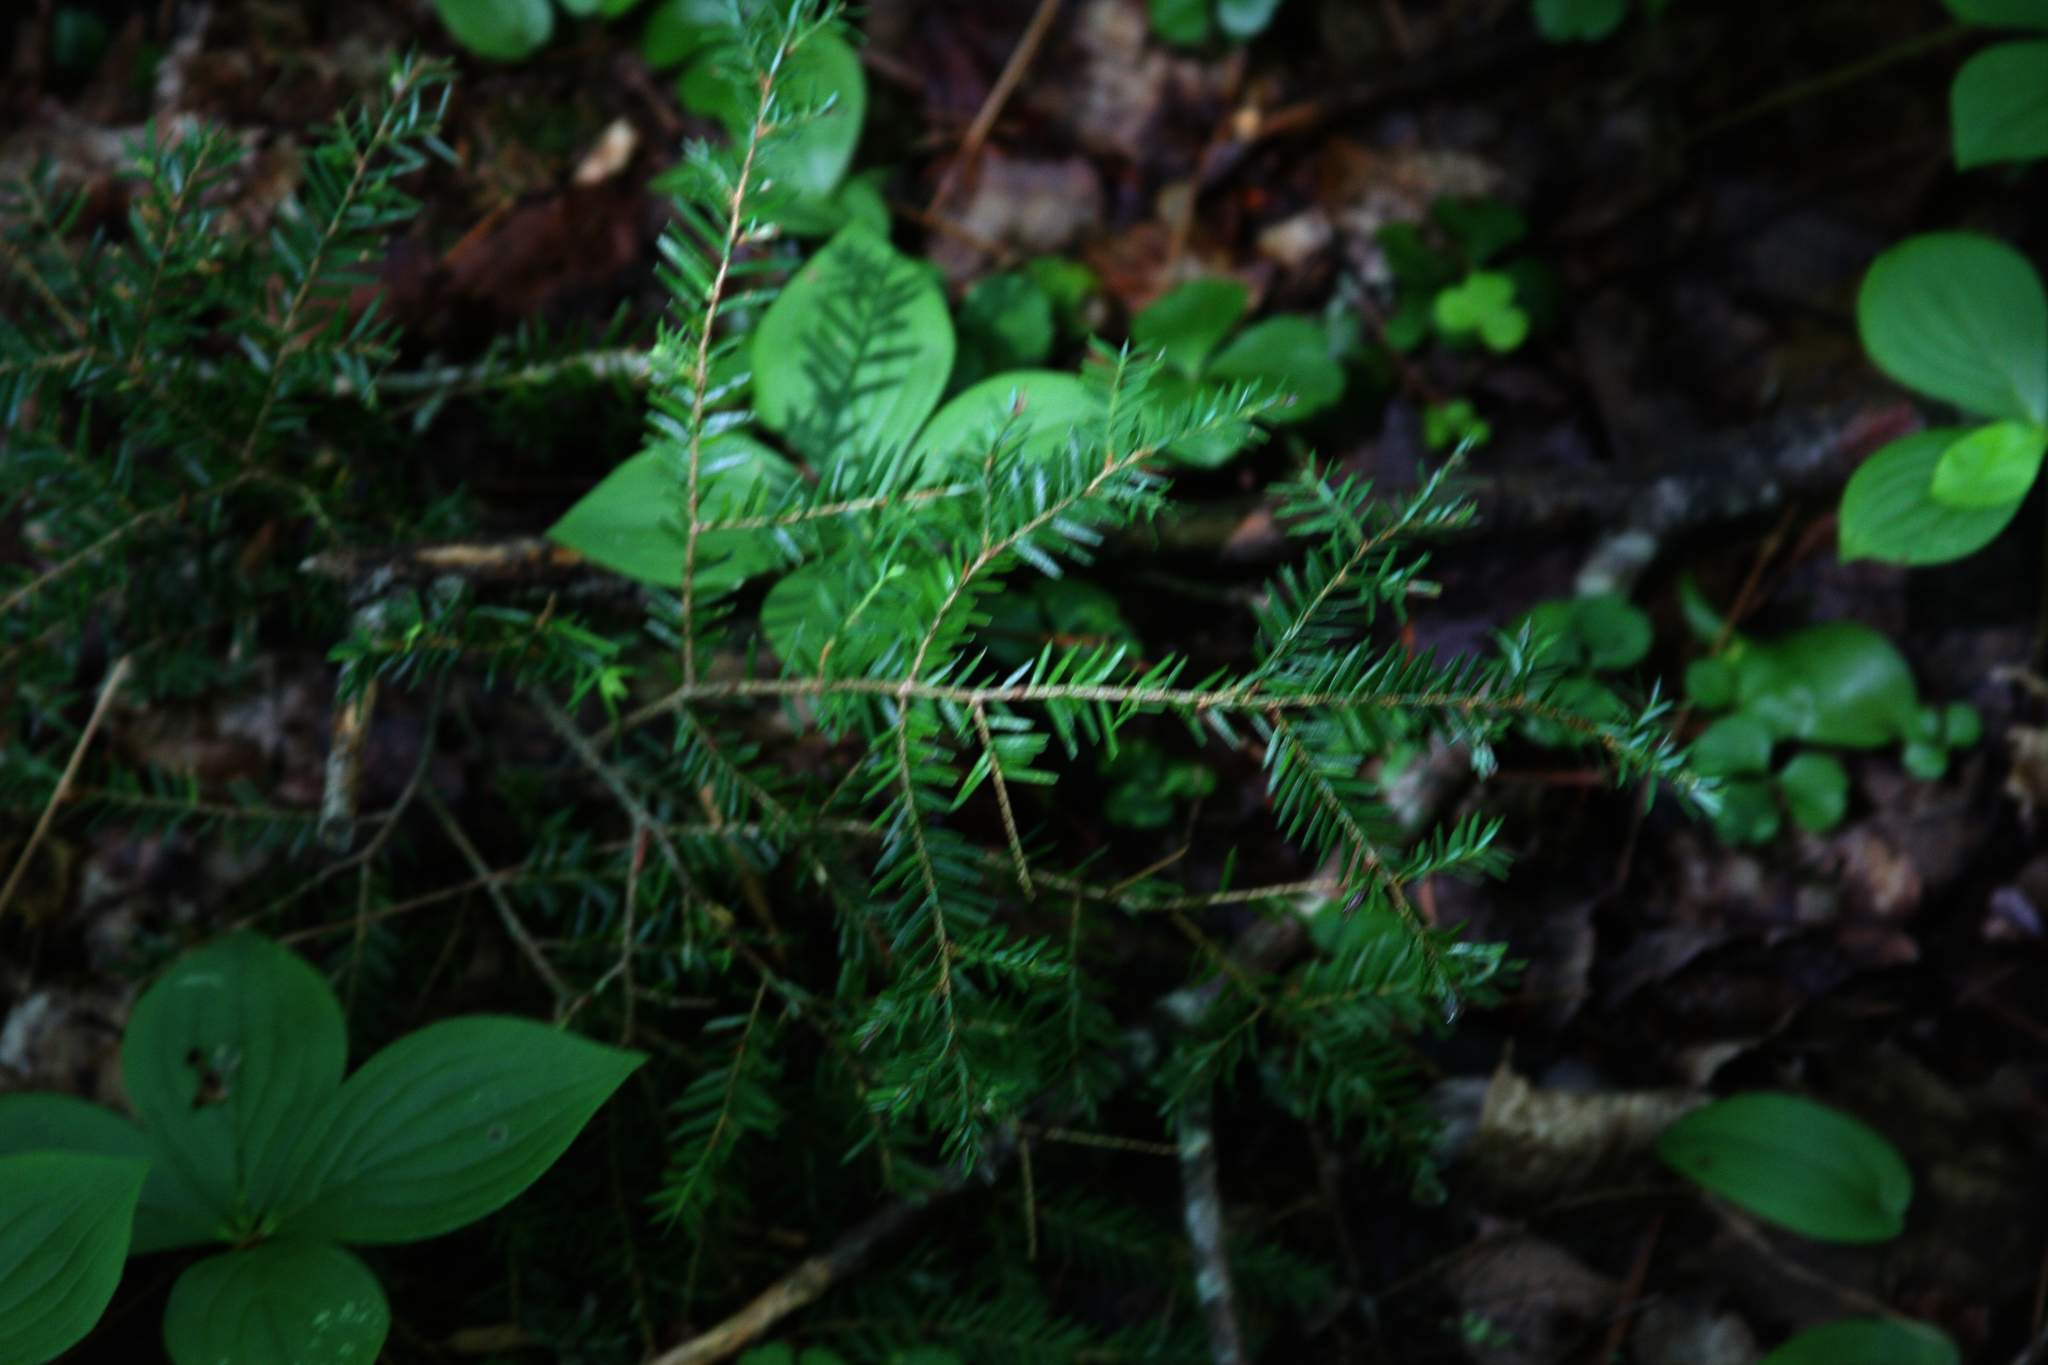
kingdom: Plantae
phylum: Tracheophyta
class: Pinopsida
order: Pinales
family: Pinaceae
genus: Tsuga
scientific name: Tsuga canadensis
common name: Eastern hemlock
